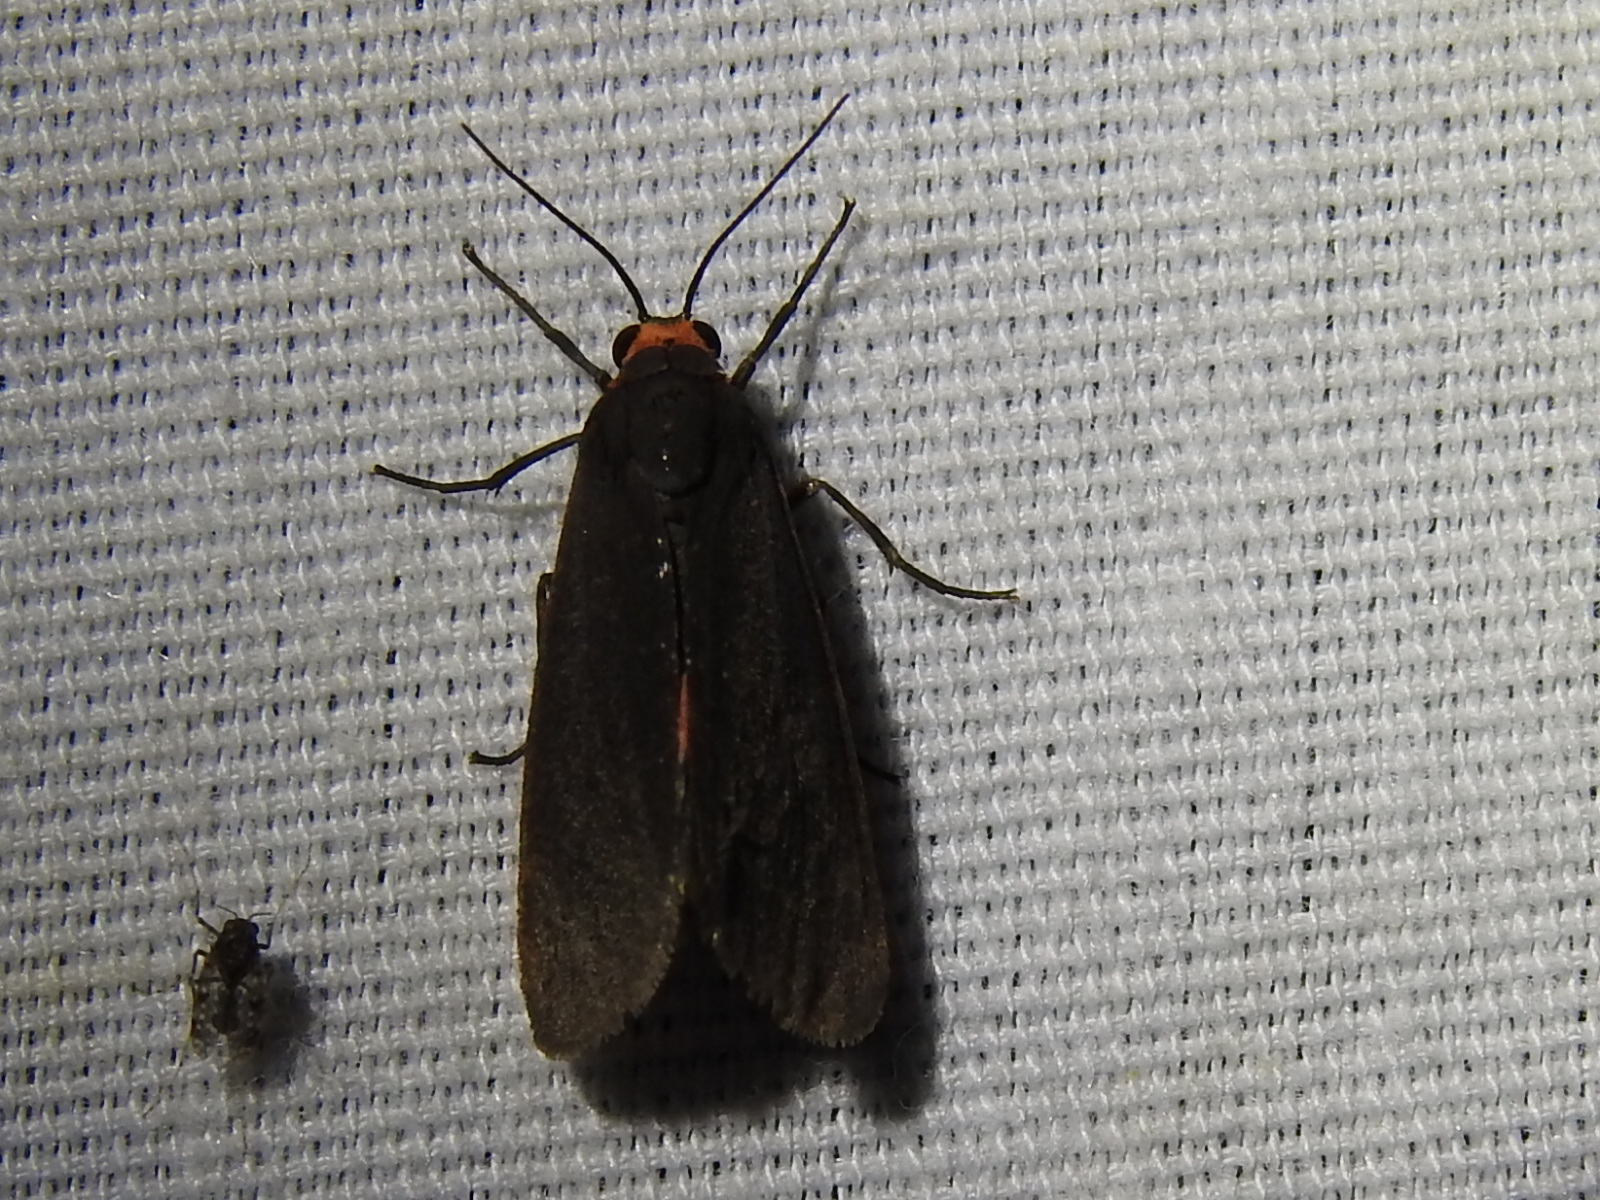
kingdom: Animalia
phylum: Arthropoda
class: Insecta
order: Lepidoptera
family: Erebidae
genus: Virbia
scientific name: Virbia laeta
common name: Joyful holomelina moth
